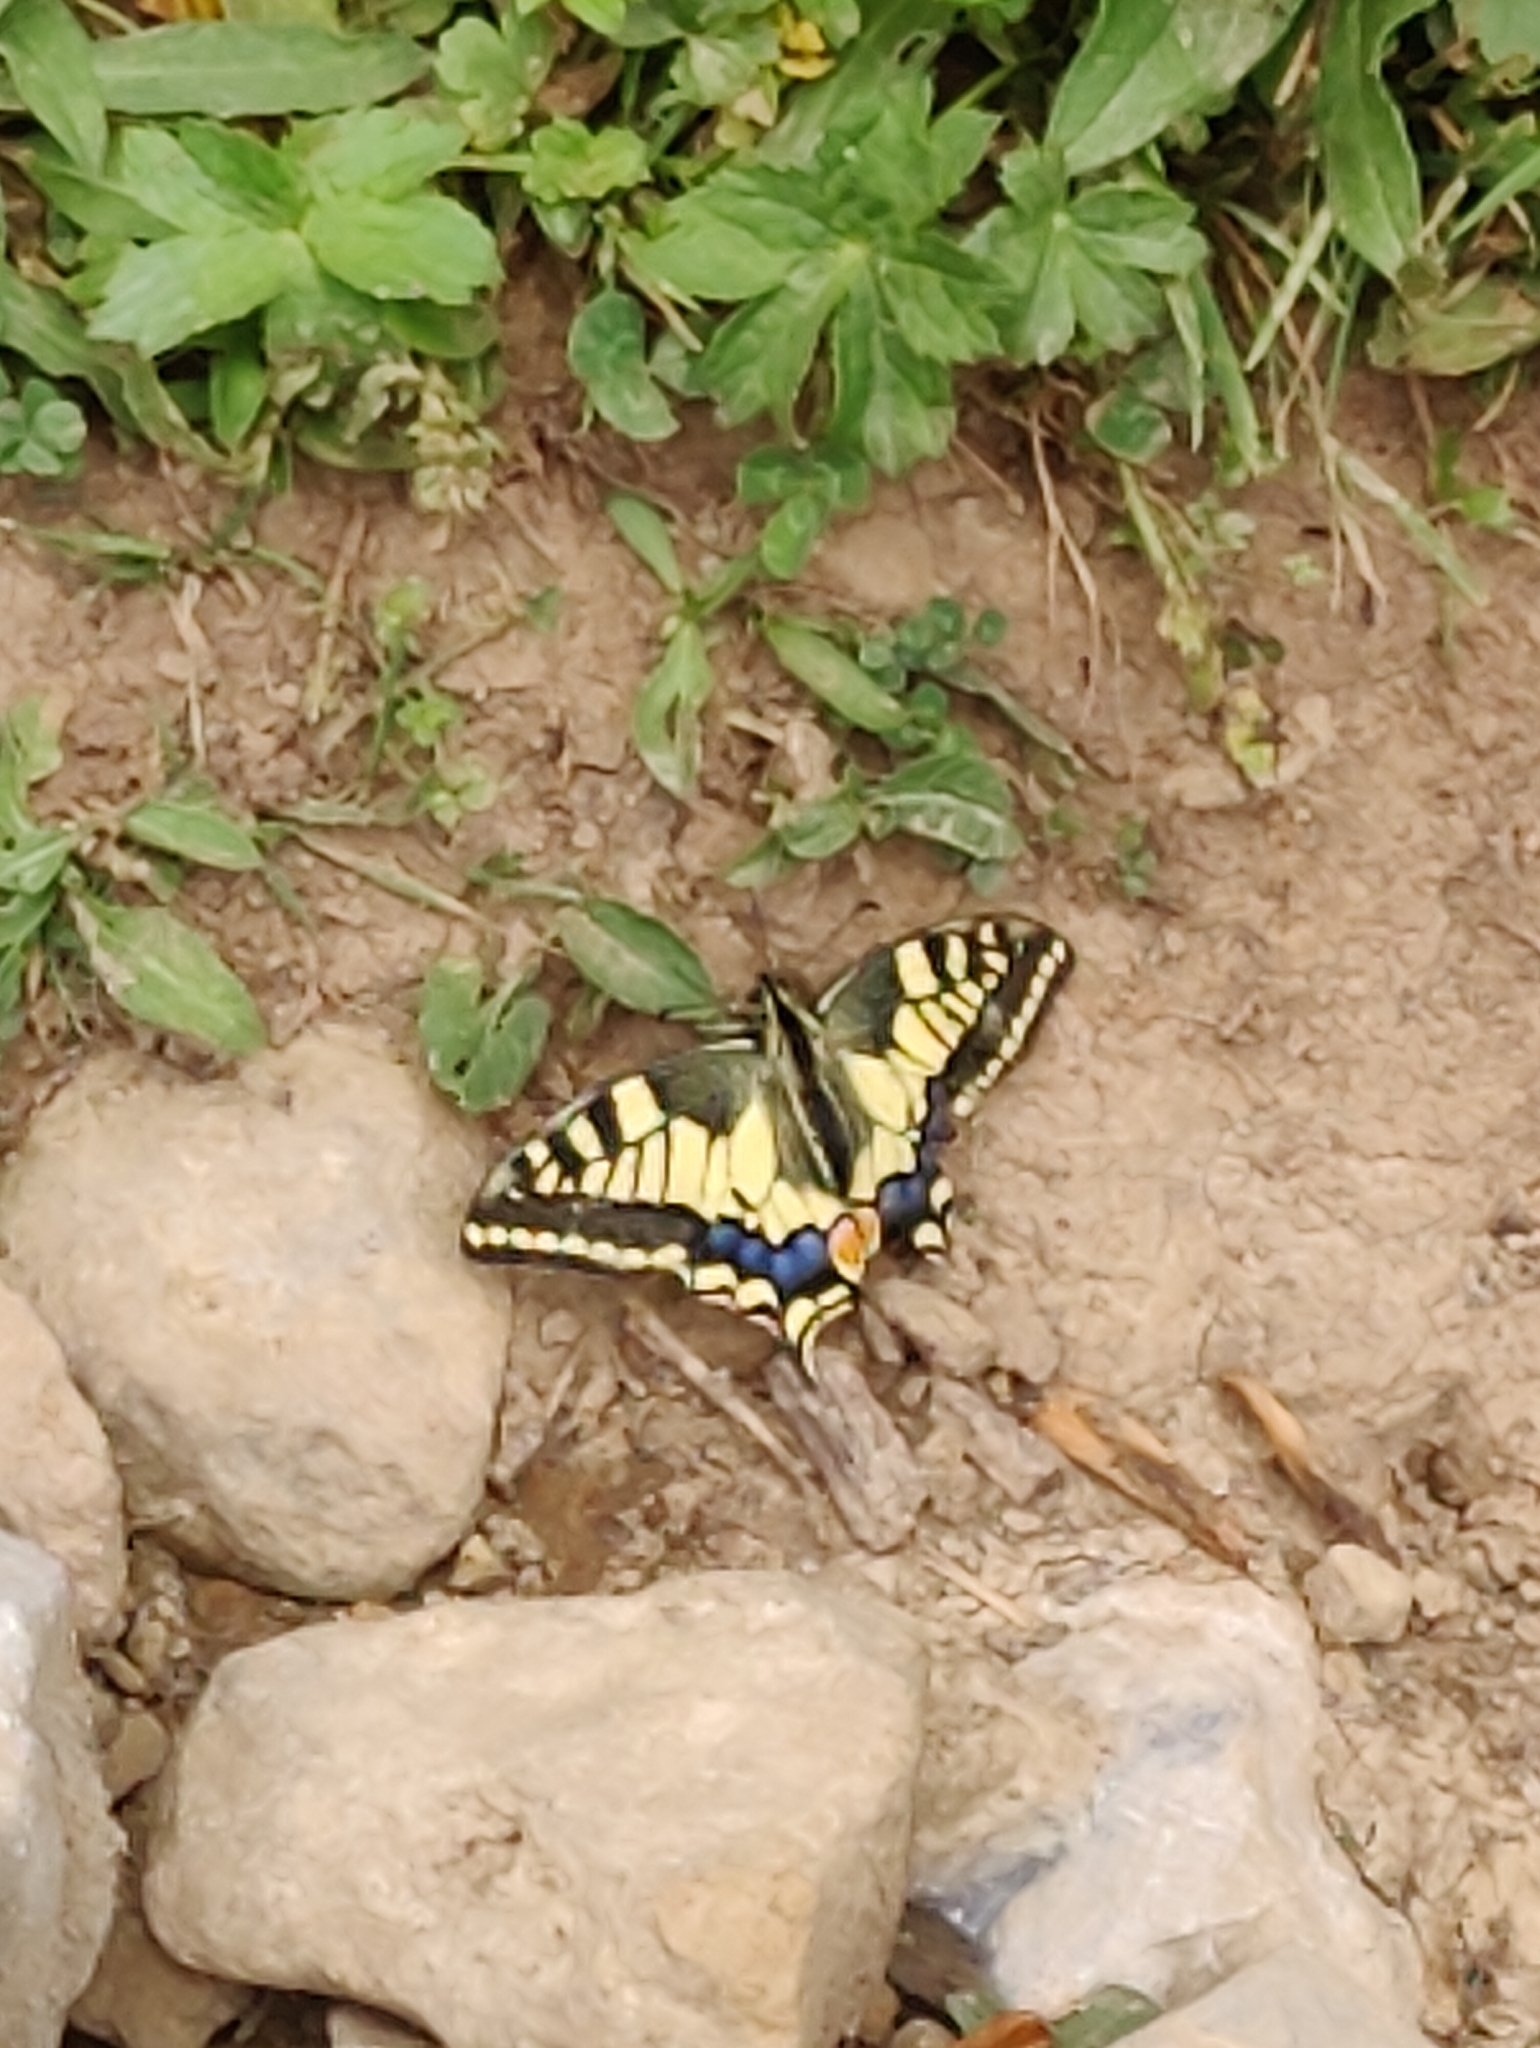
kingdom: Animalia
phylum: Arthropoda
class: Insecta
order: Lepidoptera
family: Papilionidae
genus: Papilio
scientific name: Papilio machaon
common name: Swallowtail
